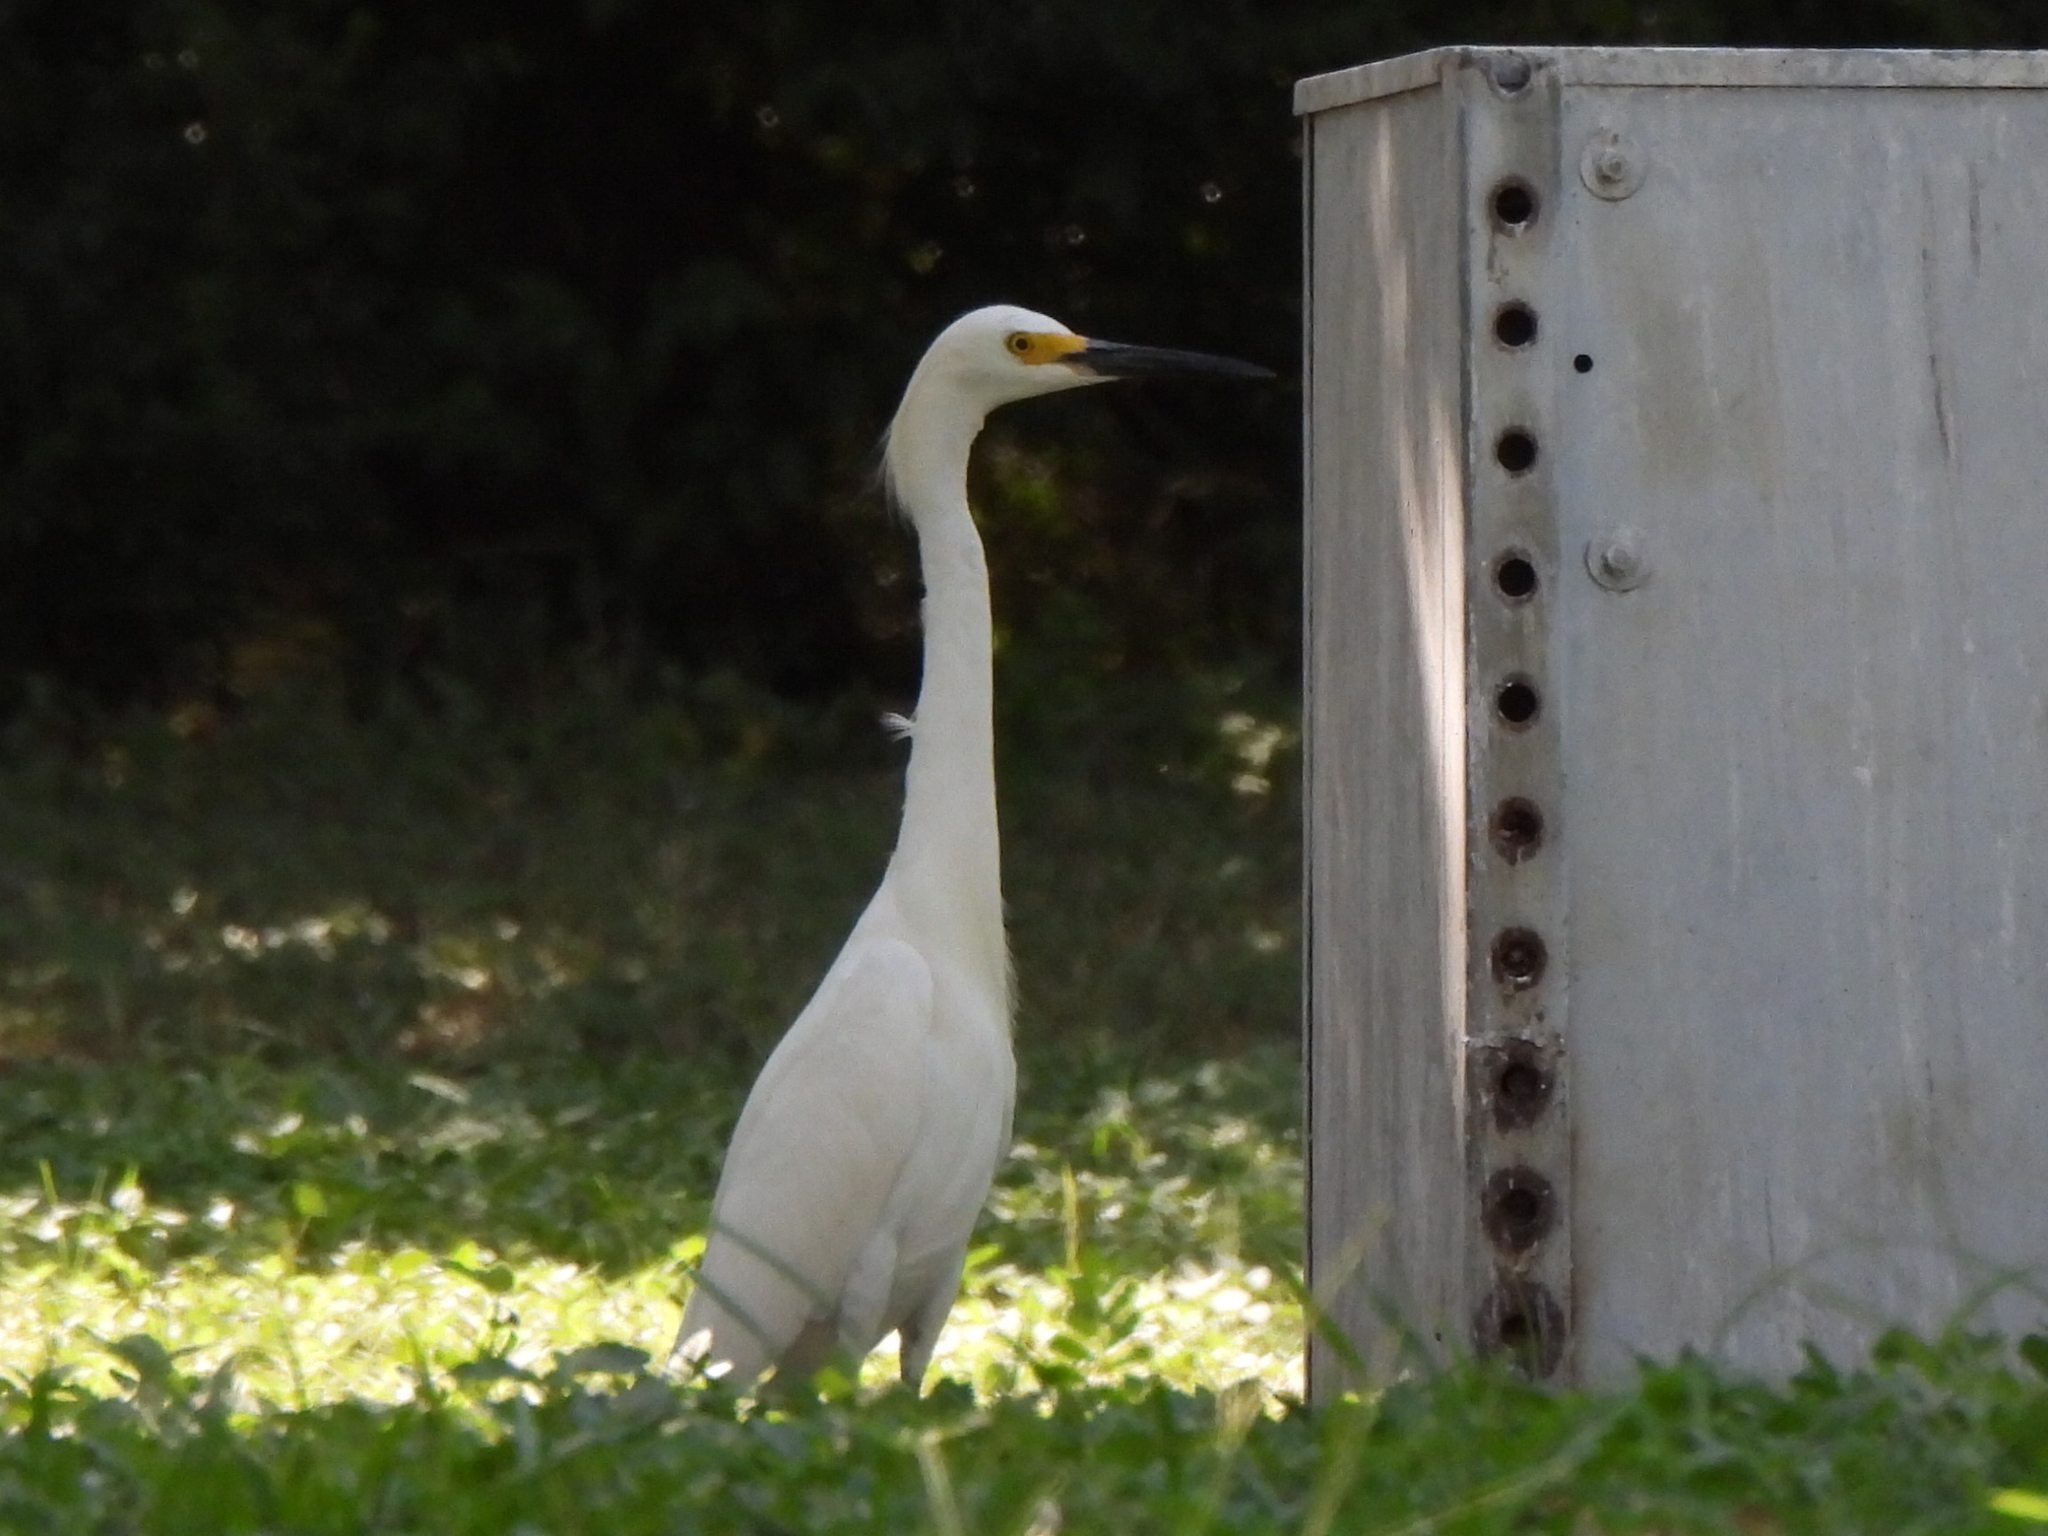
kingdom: Animalia
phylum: Chordata
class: Aves
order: Pelecaniformes
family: Ardeidae
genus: Egretta
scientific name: Egretta thula
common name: Snowy egret
